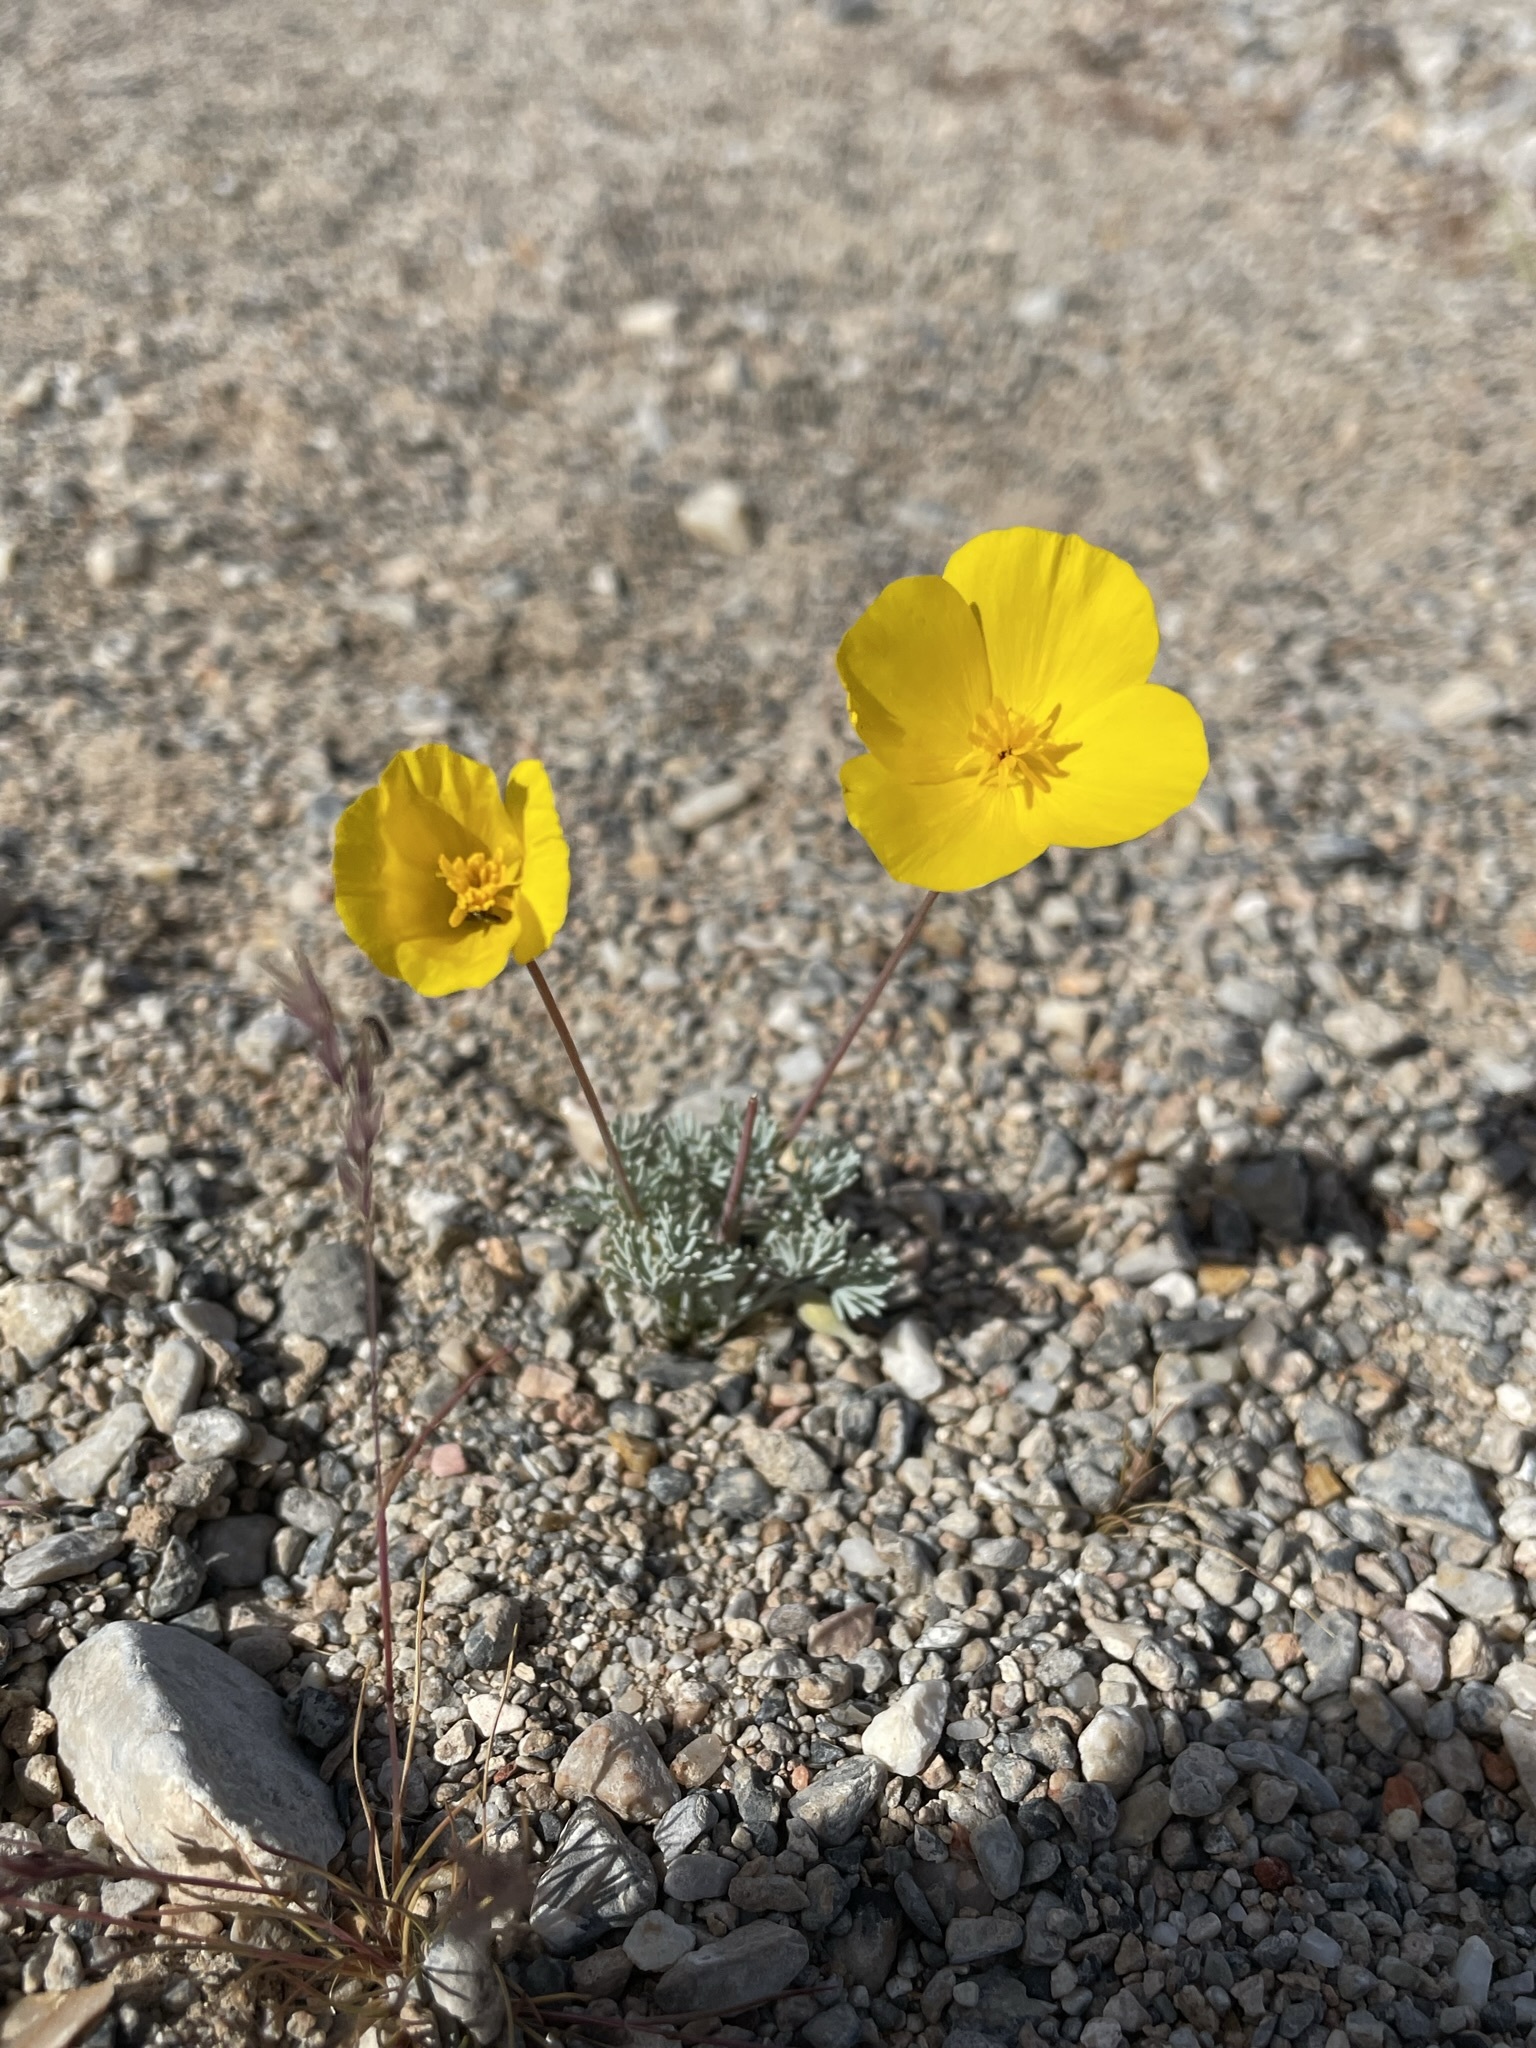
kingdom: Plantae
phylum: Tracheophyta
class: Magnoliopsida
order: Ranunculales
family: Papaveraceae
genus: Eschscholzia
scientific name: Eschscholzia glyptosperma
